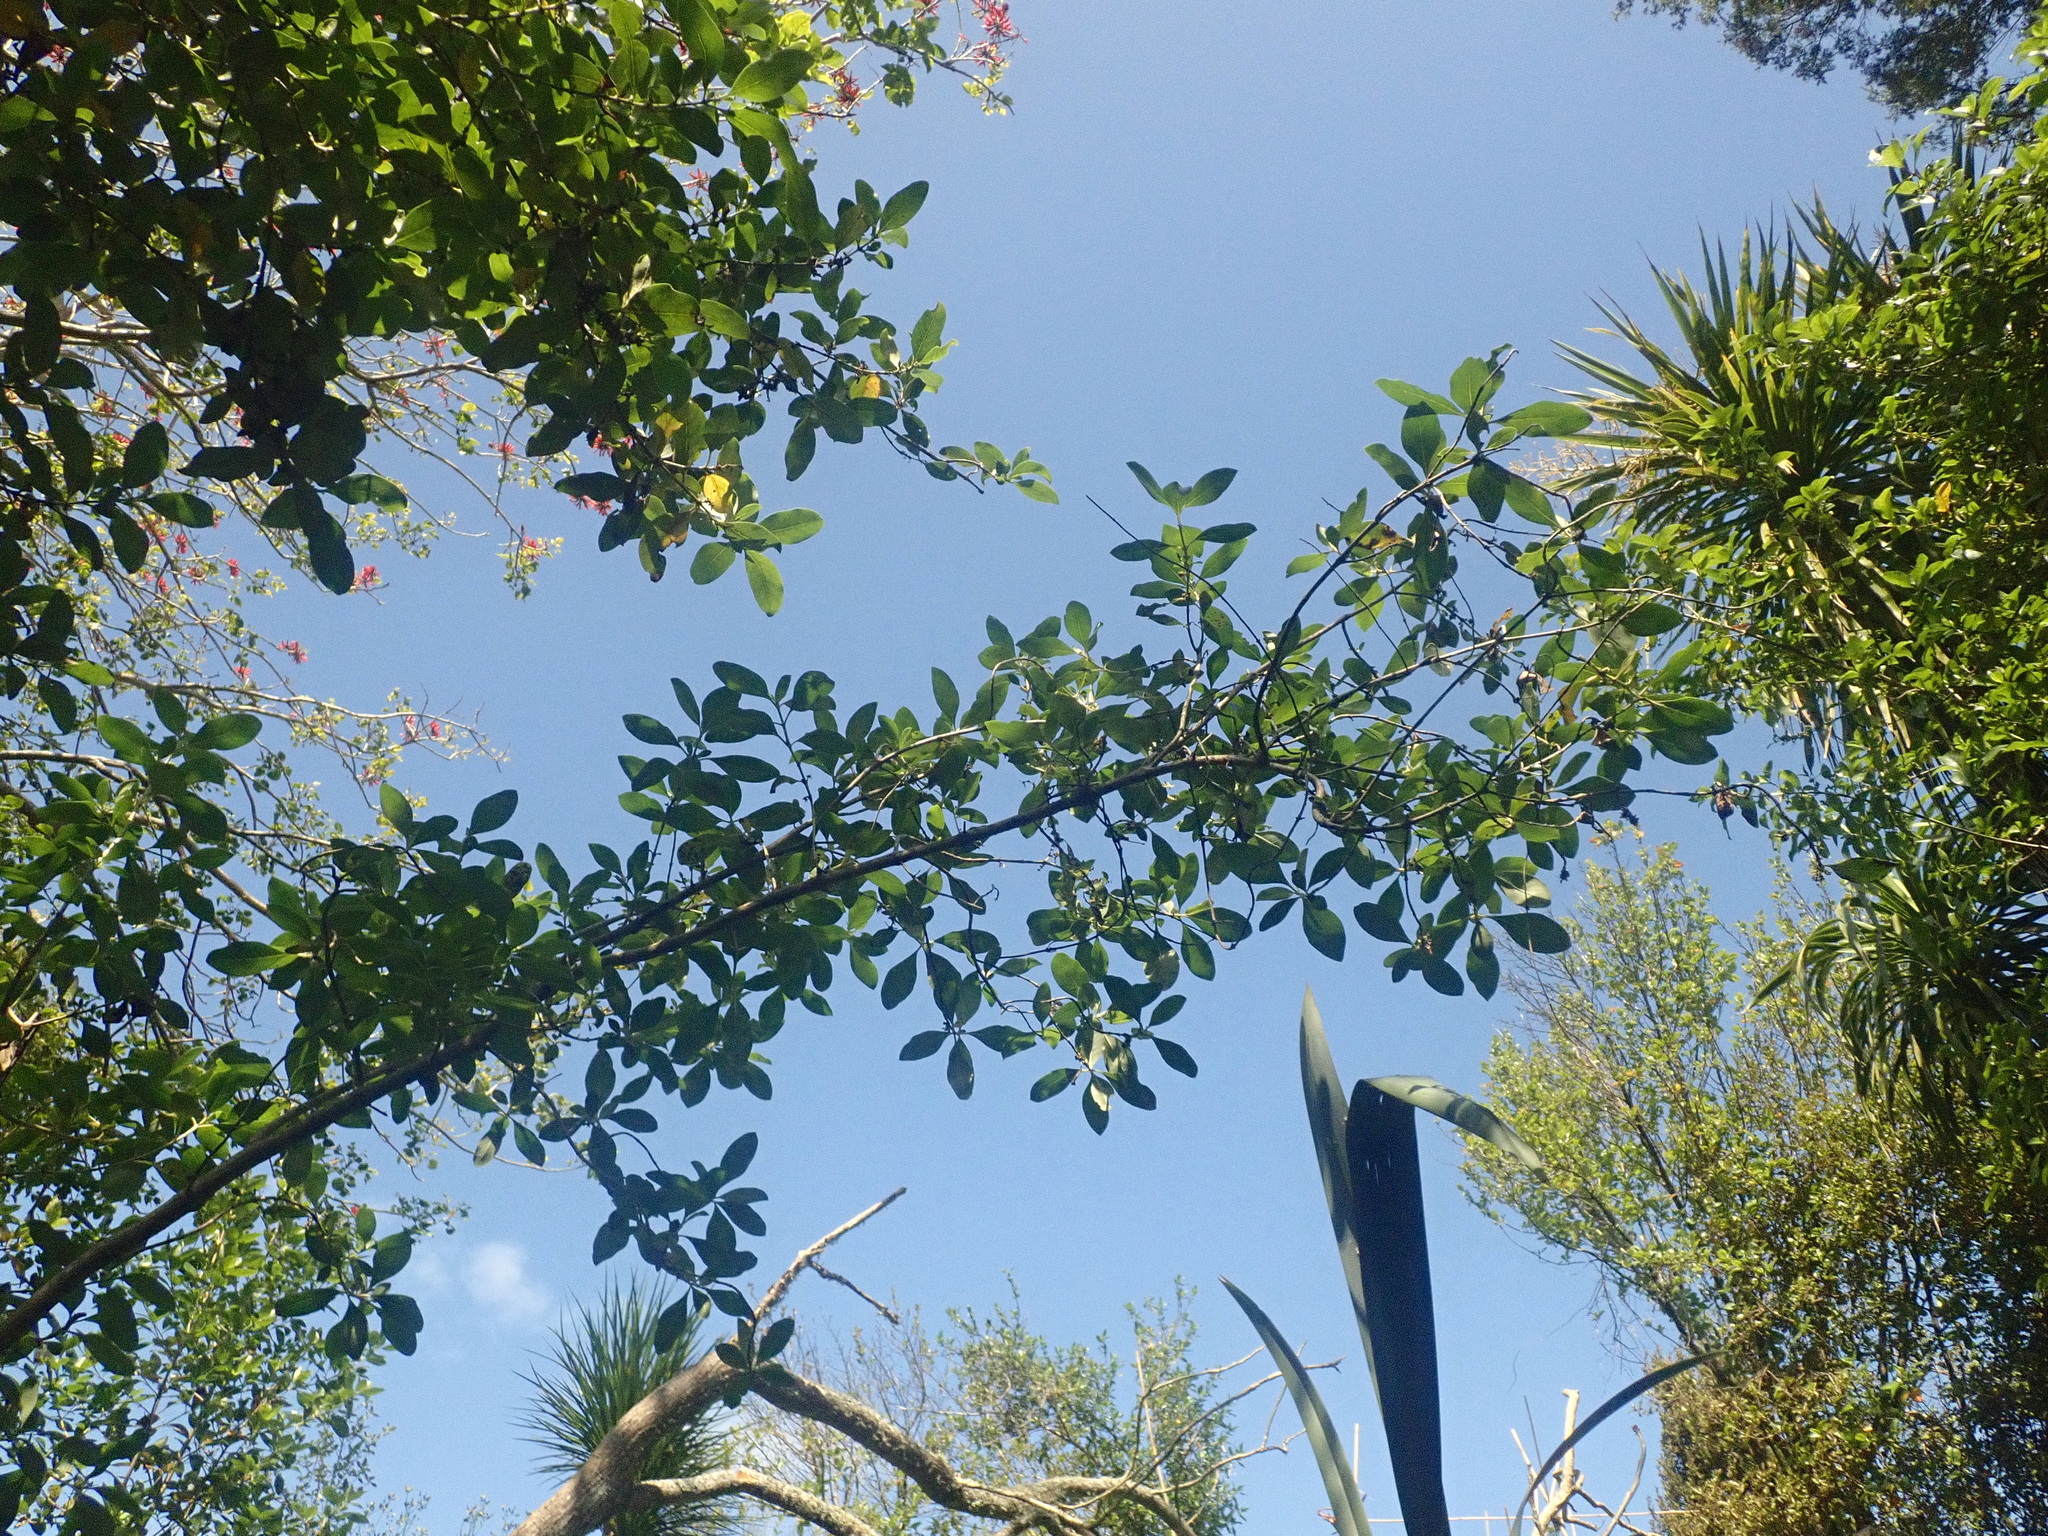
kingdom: Plantae
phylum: Tracheophyta
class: Magnoliopsida
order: Gentianales
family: Rubiaceae
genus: Coprosma
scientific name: Coprosma robusta
